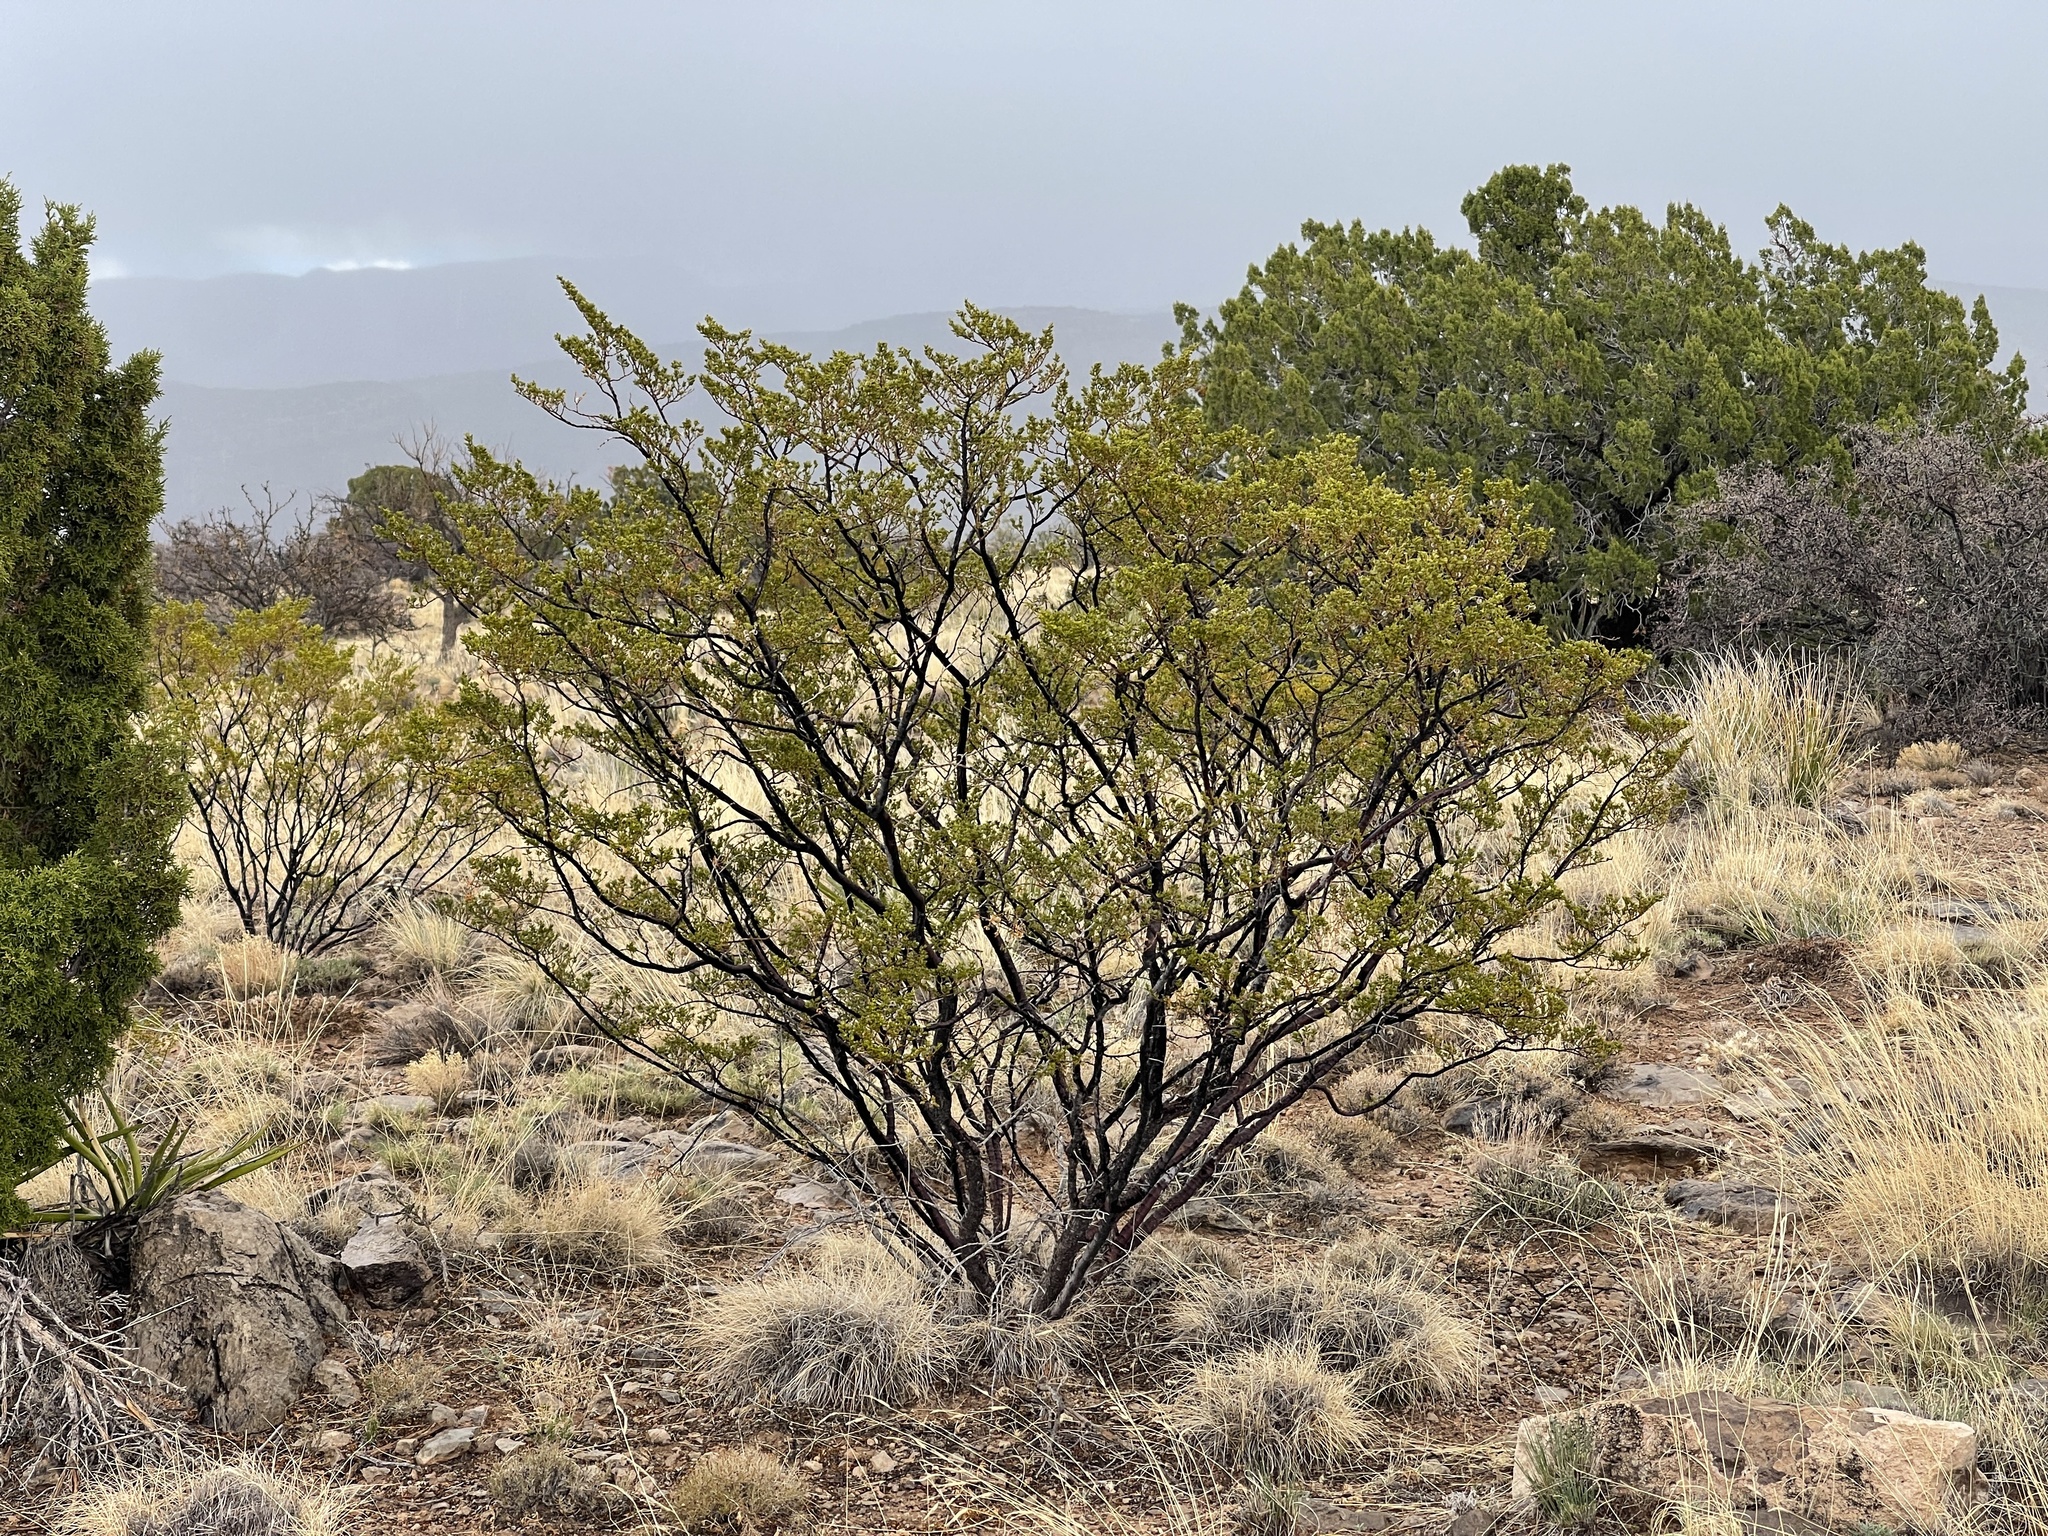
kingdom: Plantae
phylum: Tracheophyta
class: Magnoliopsida
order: Zygophyllales
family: Zygophyllaceae
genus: Larrea
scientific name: Larrea tridentata
